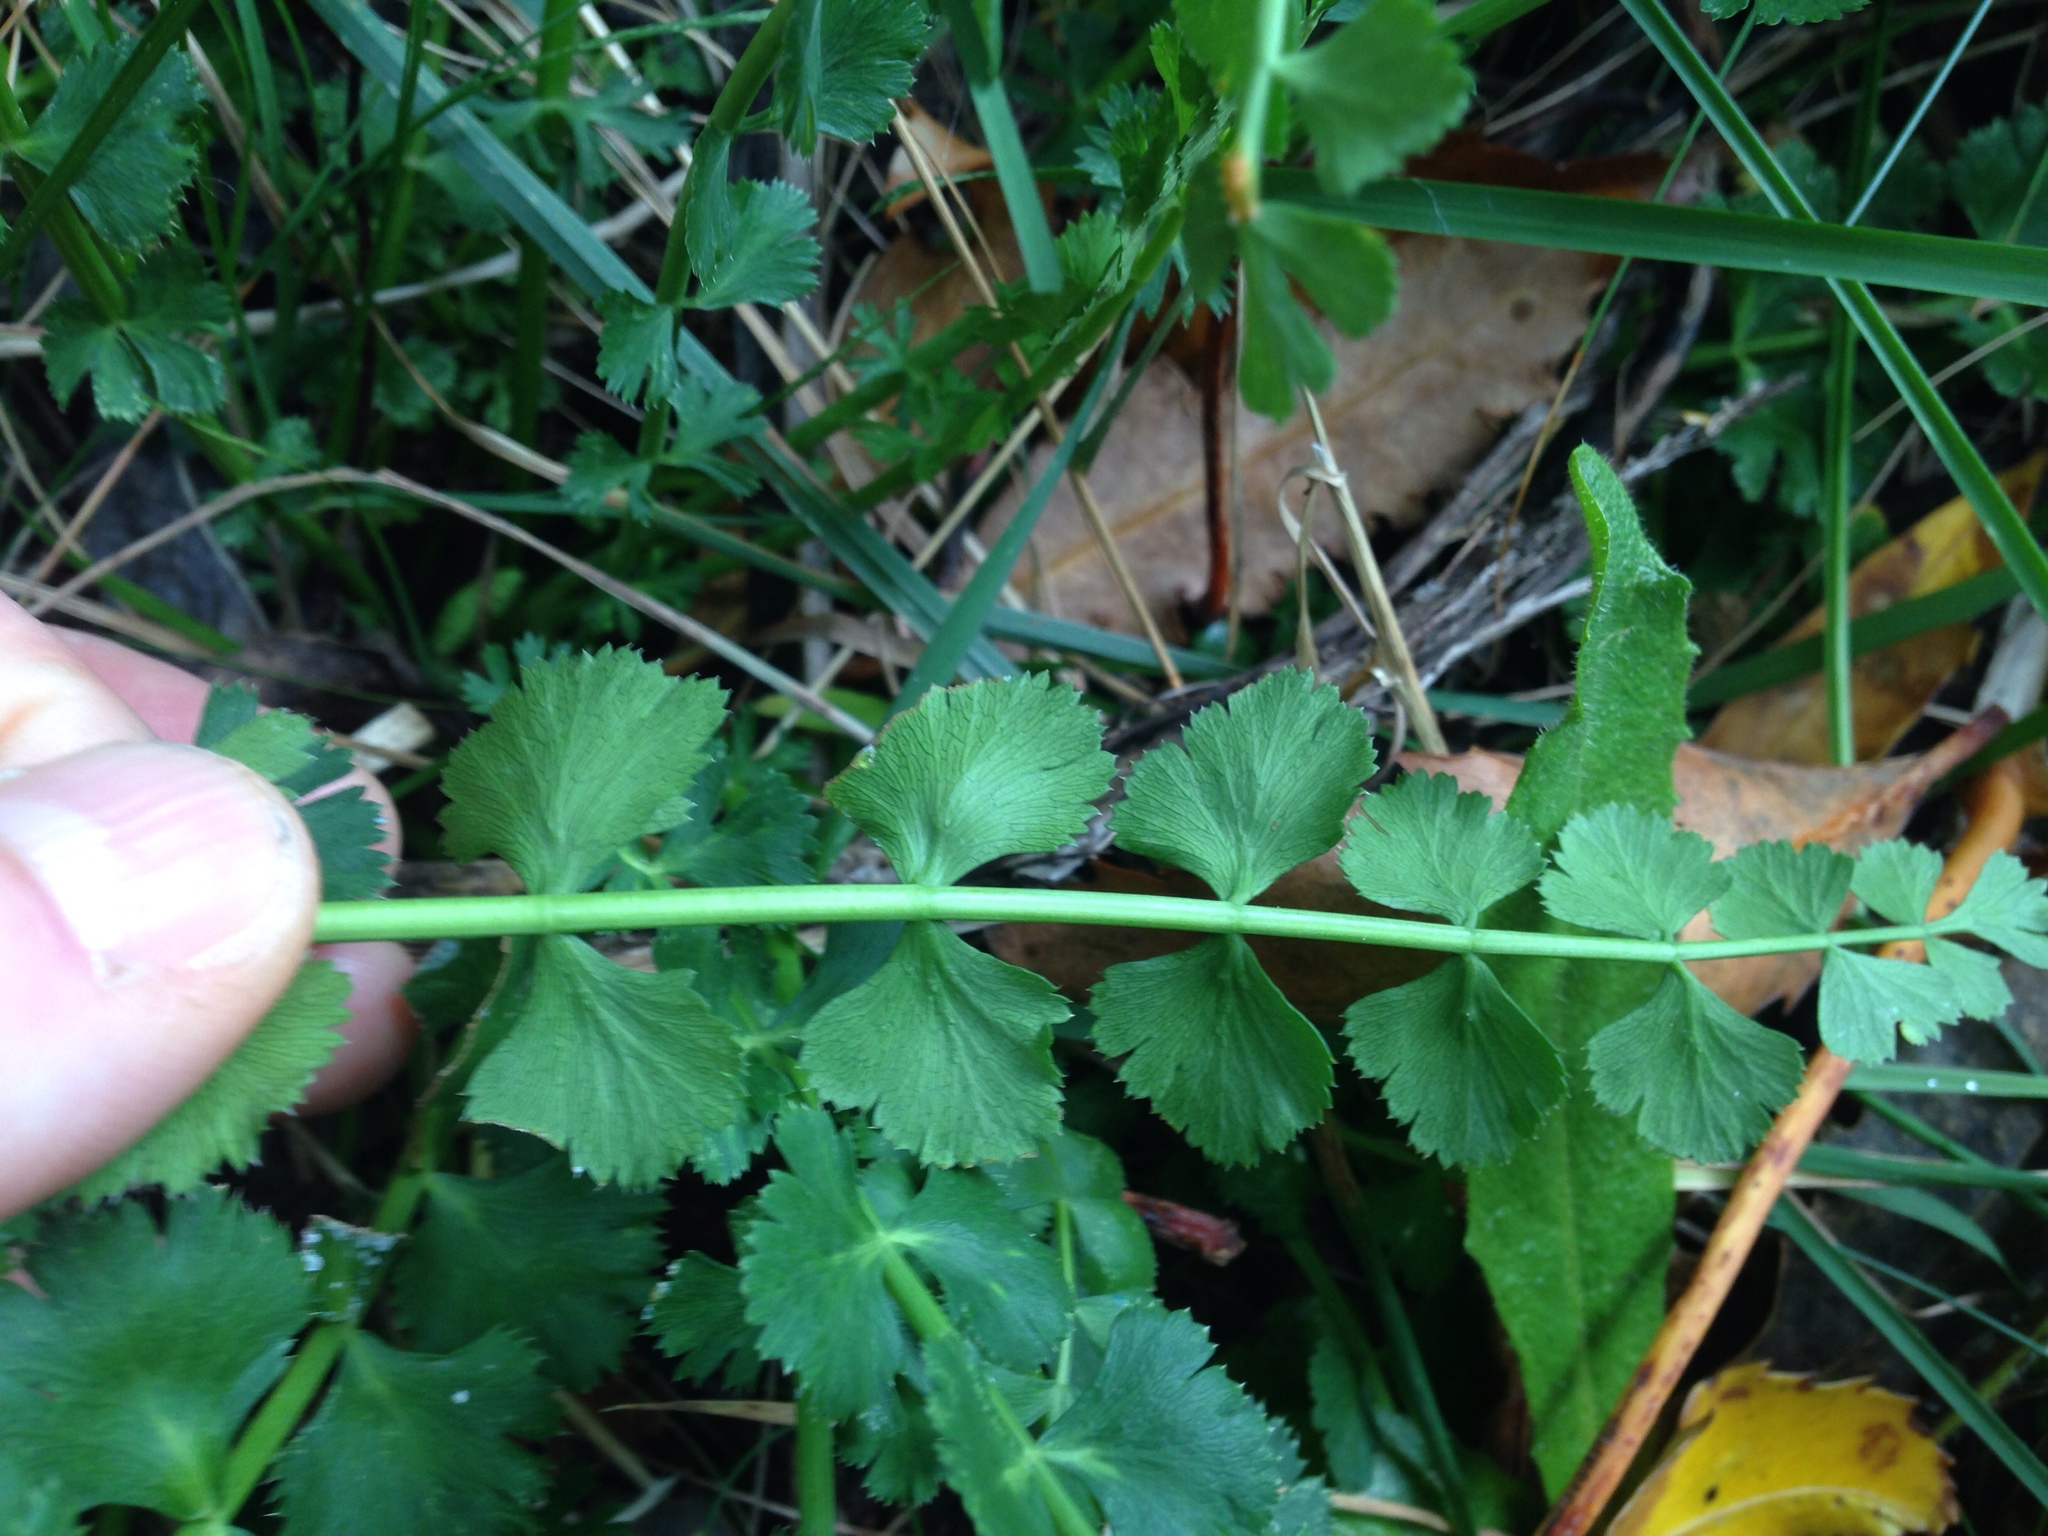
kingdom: Plantae
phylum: Tracheophyta
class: Polypodiopsida
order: Polypodiales
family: Aspleniaceae
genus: Asplenium
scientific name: Asplenium flabellifolium
